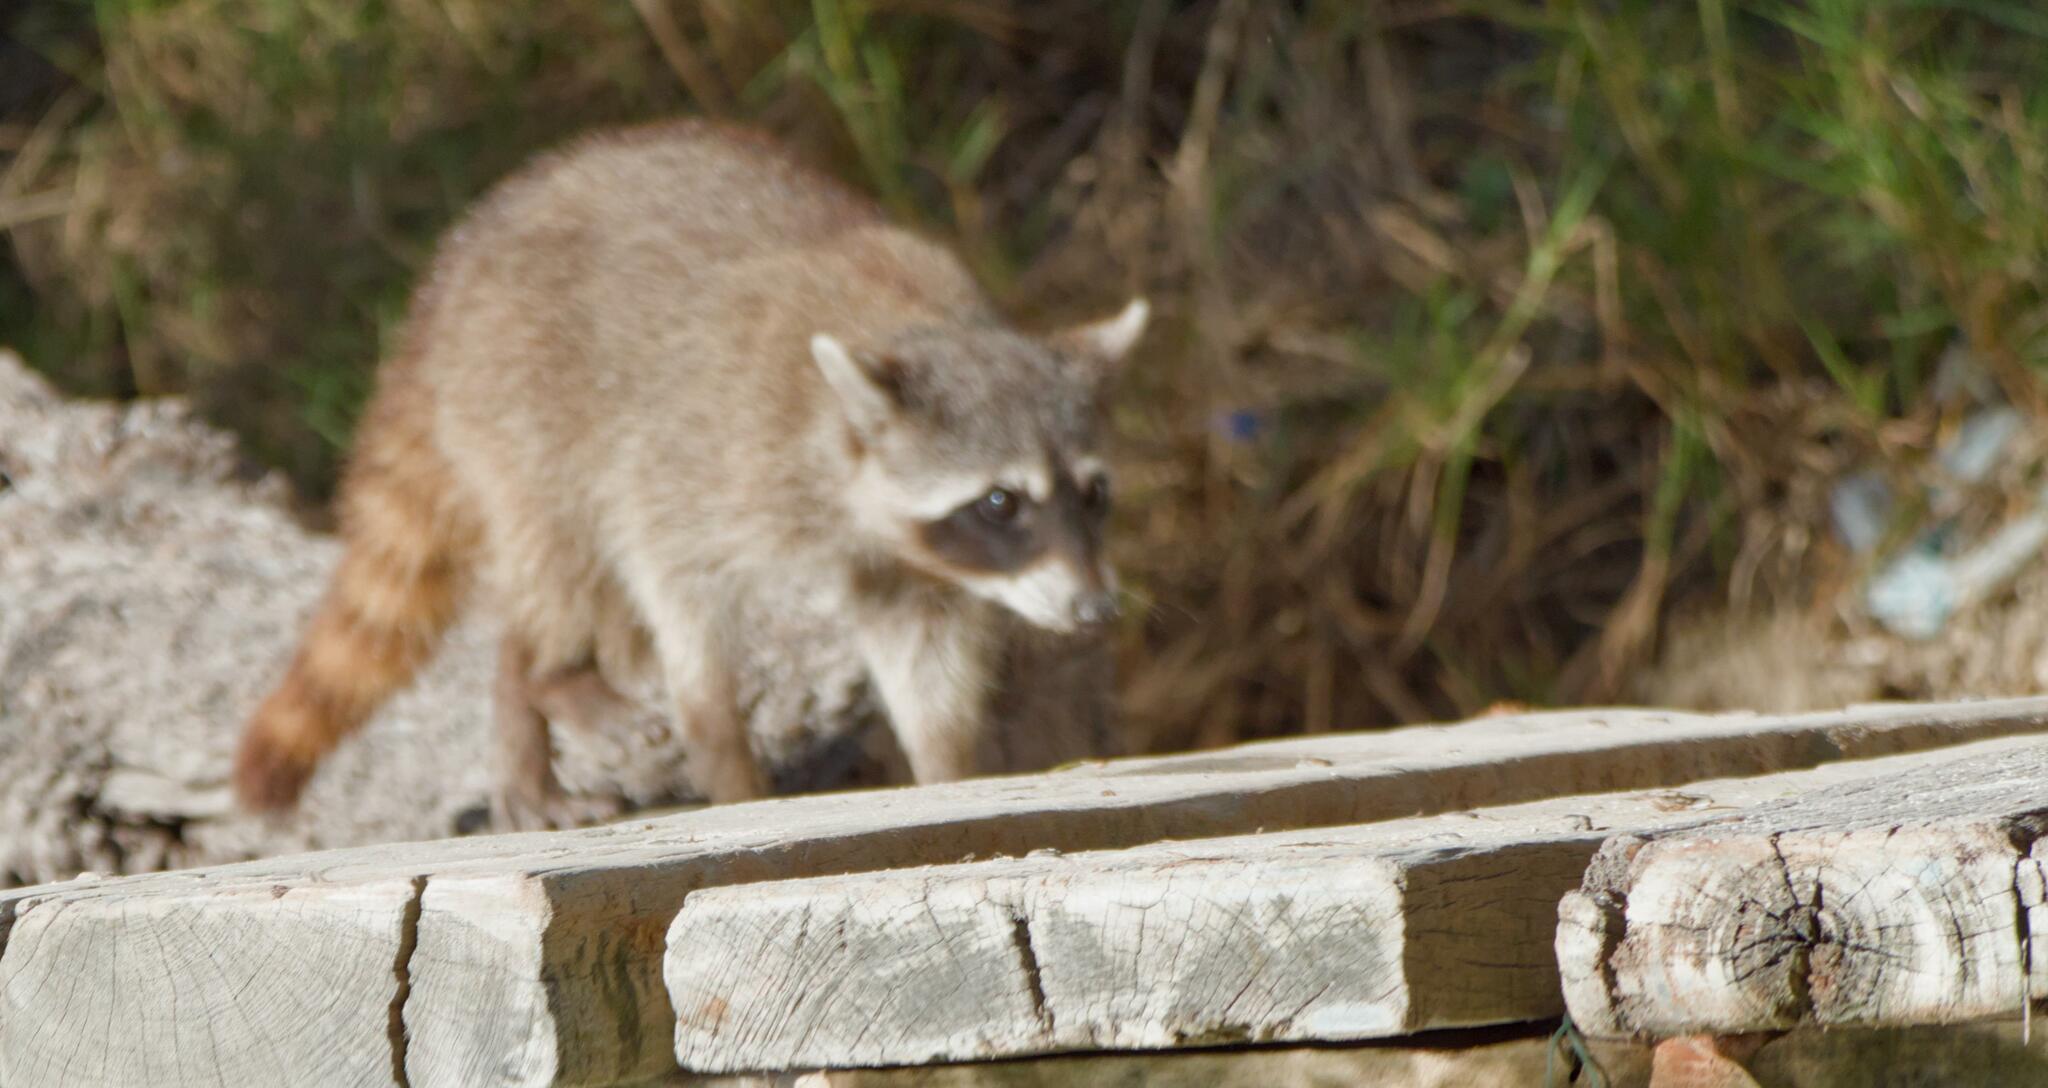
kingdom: Animalia
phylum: Chordata
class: Mammalia
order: Carnivora
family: Procyonidae
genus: Procyon
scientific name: Procyon lotor
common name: Raccoon
